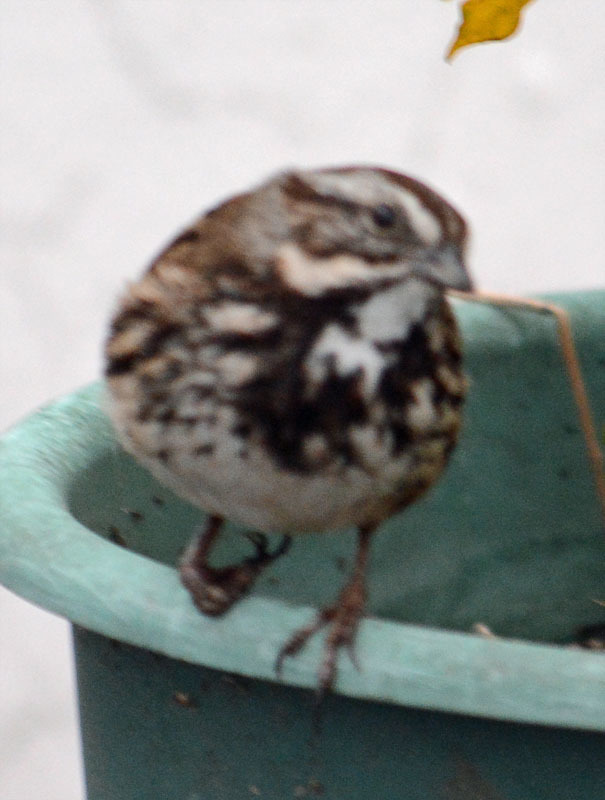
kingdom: Animalia
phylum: Chordata
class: Aves
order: Passeriformes
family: Passerellidae
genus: Melospiza
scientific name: Melospiza melodia
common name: Song sparrow
